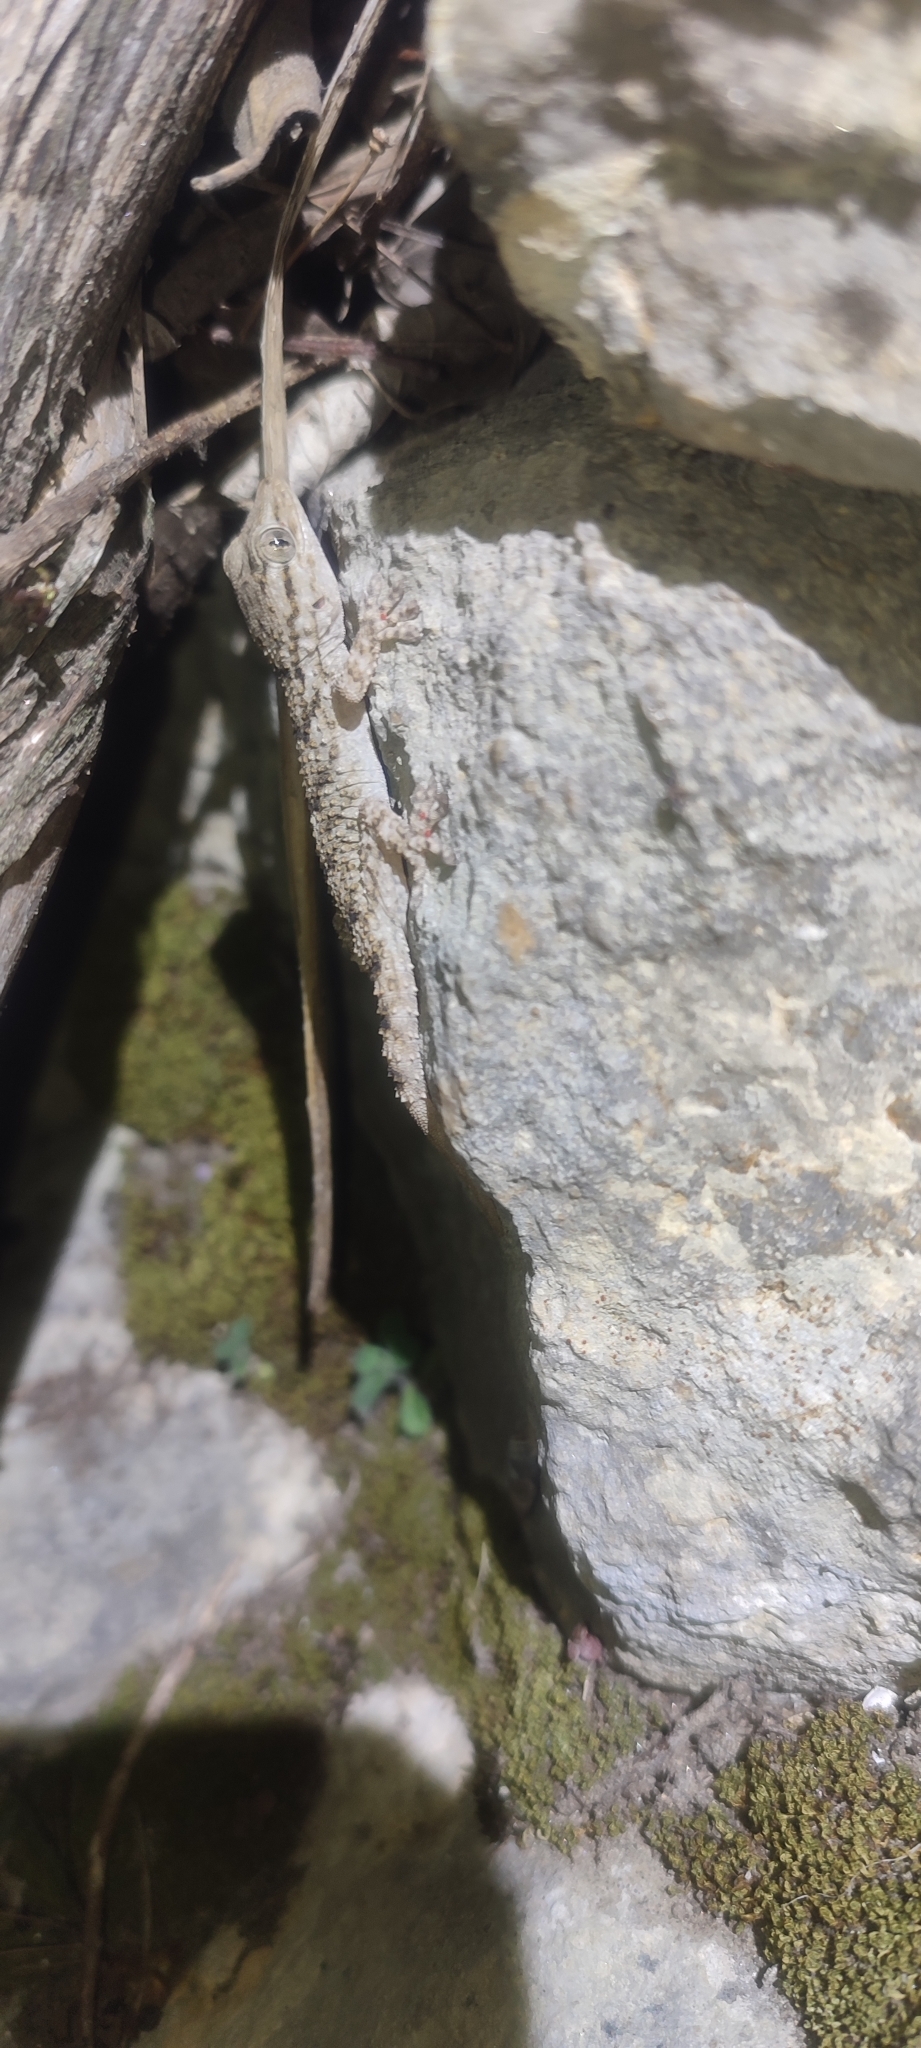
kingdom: Animalia
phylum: Chordata
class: Squamata
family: Phyllodactylidae
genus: Tarentola
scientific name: Tarentola mauritanica
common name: Moorish gecko
